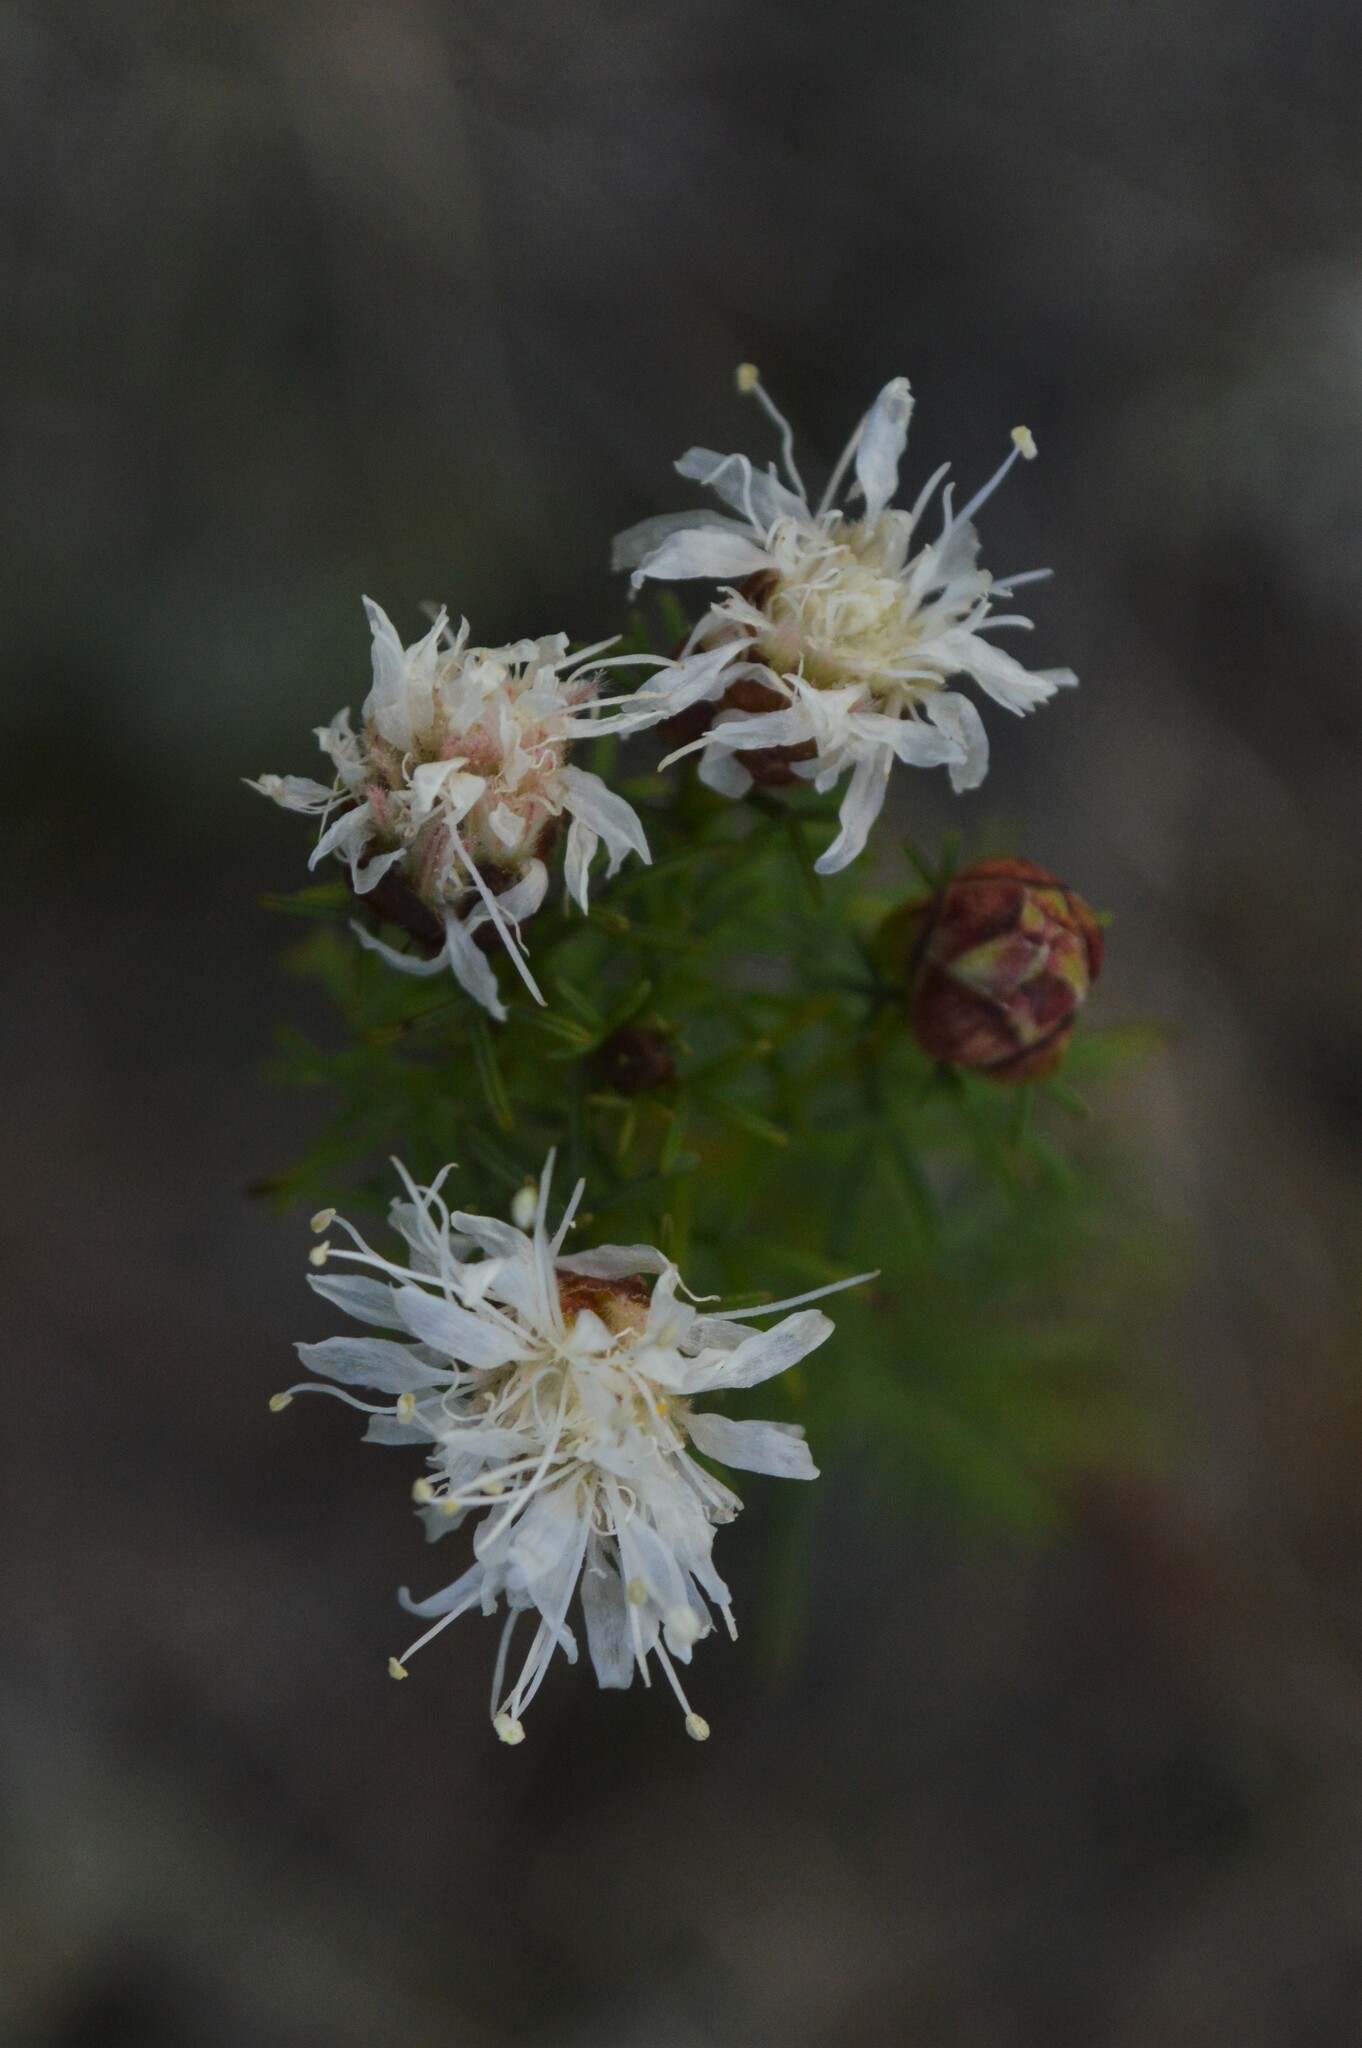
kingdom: Plantae
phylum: Tracheophyta
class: Magnoliopsida
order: Fabales
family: Fabaceae
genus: Dalea
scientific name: Dalea pinnata
